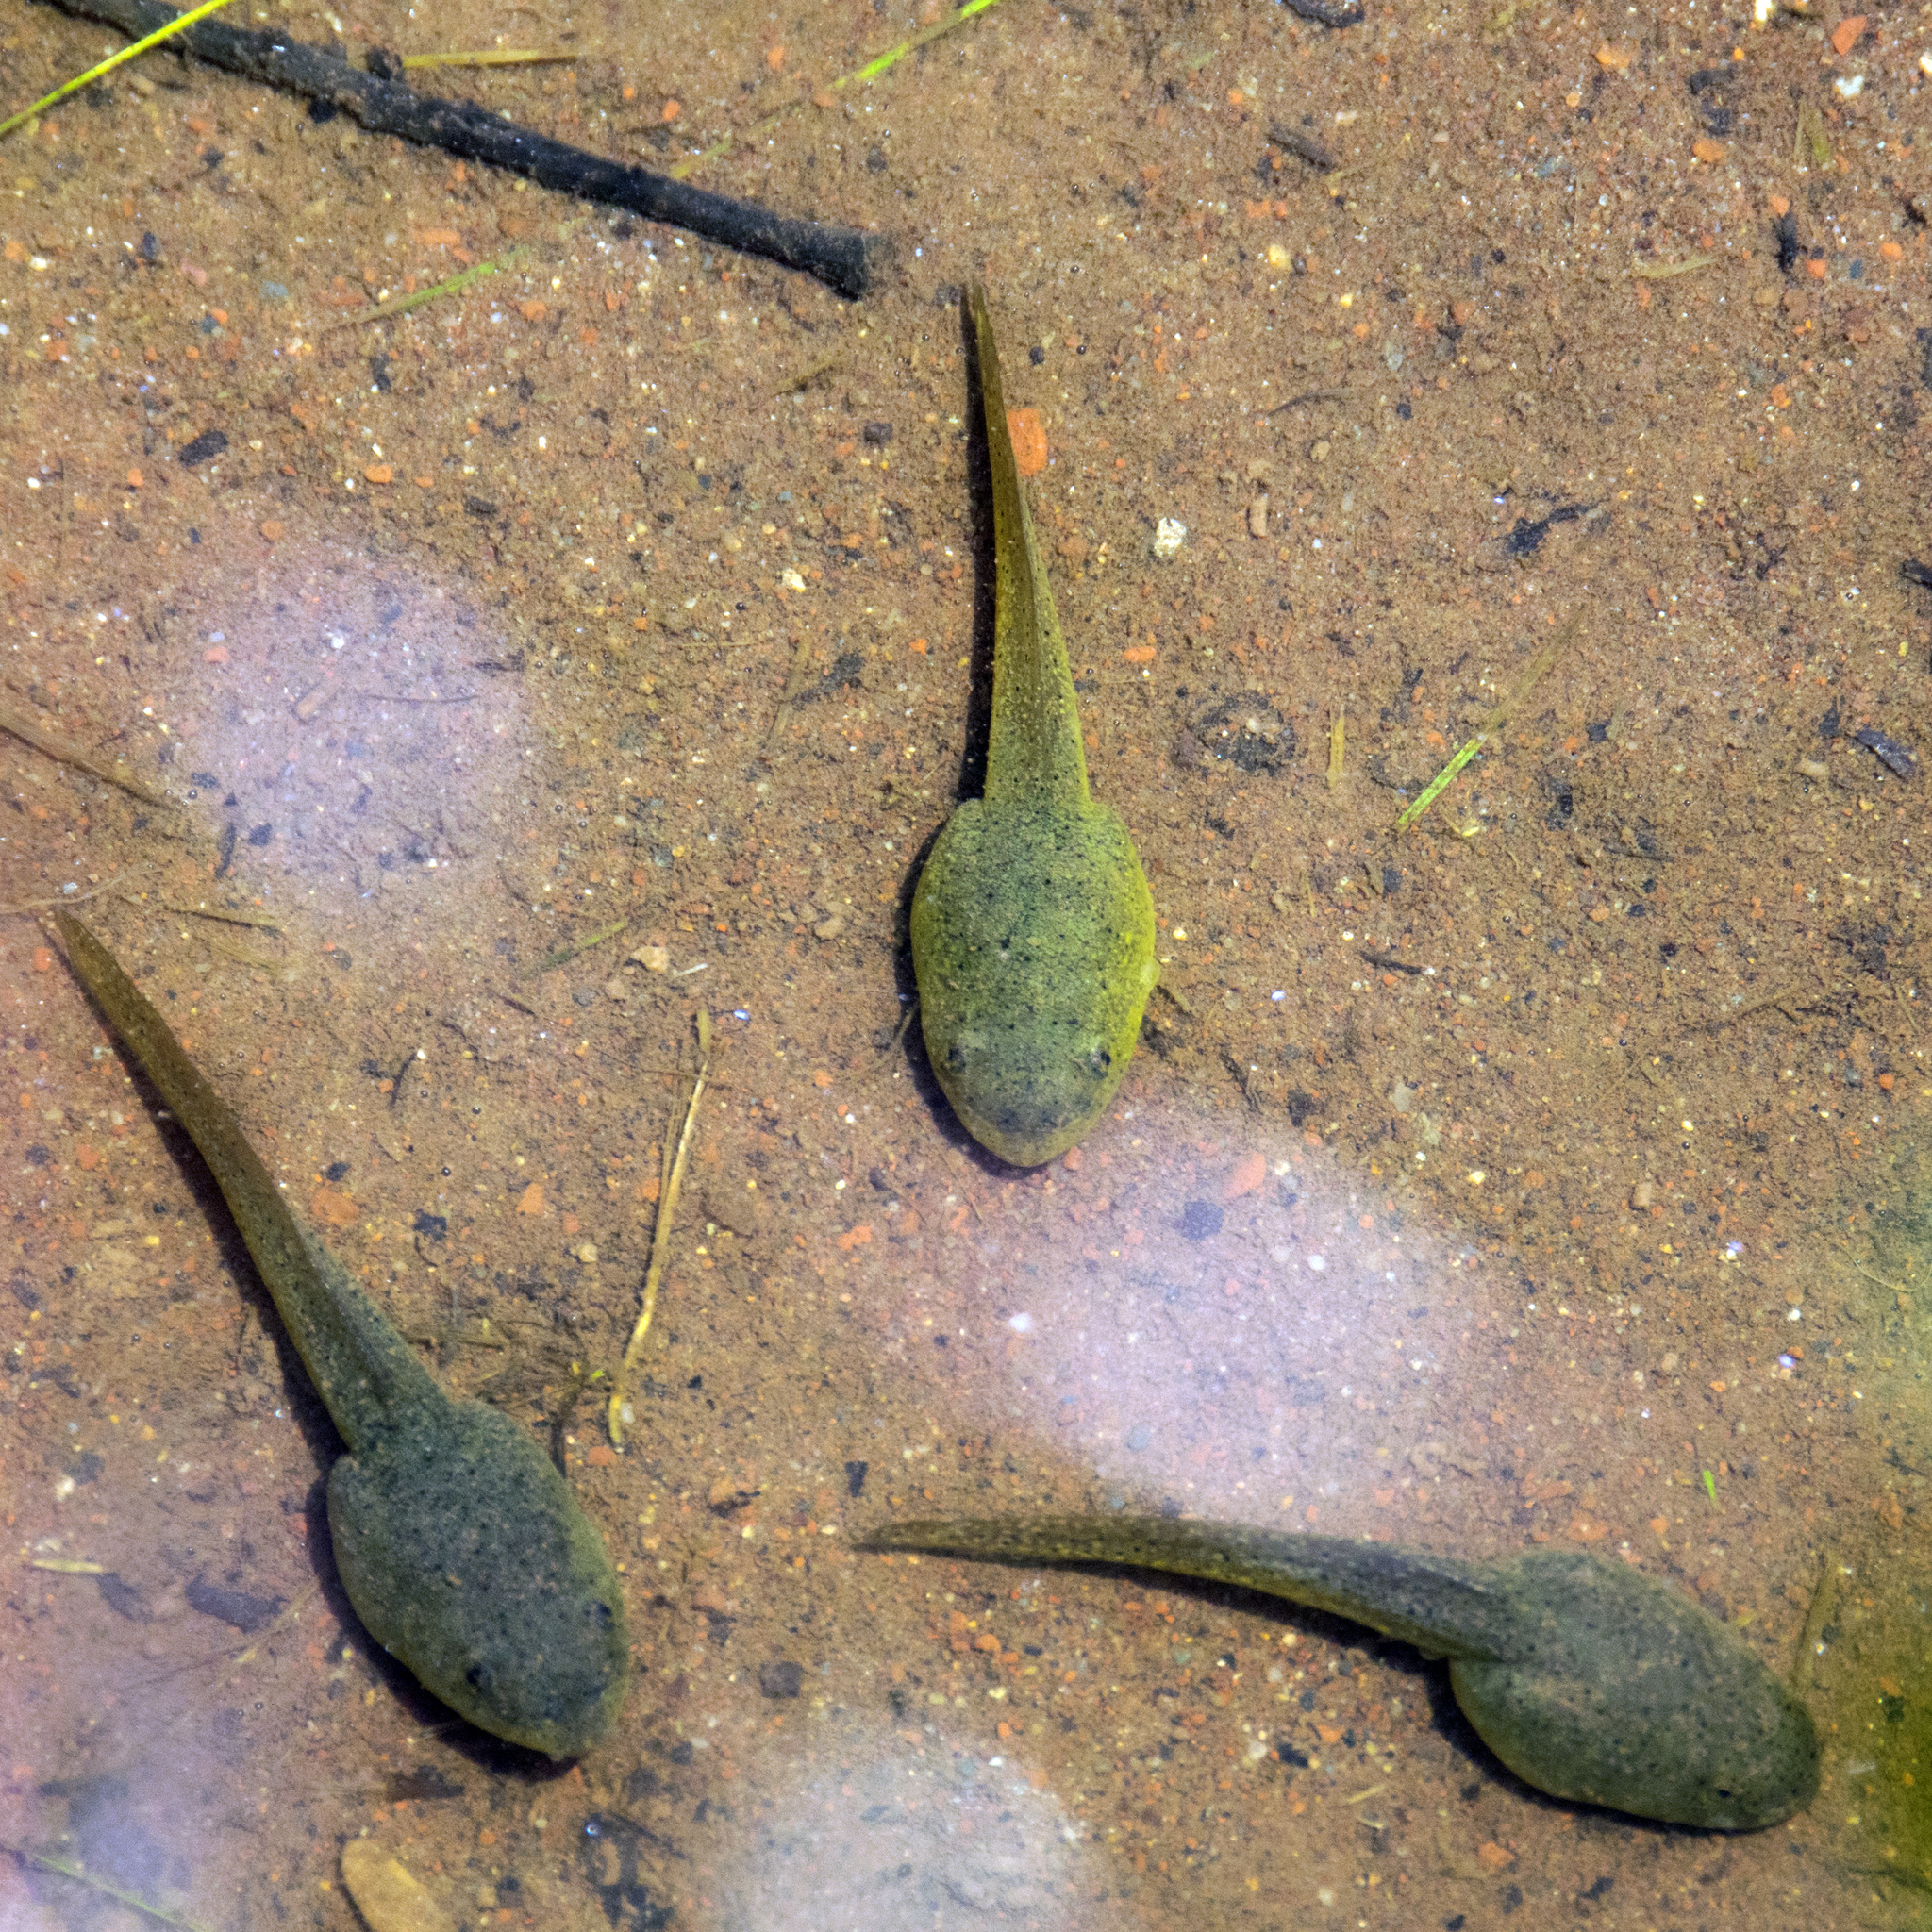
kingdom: Animalia
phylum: Chordata
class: Amphibia
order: Anura
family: Ranidae
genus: Lithobates
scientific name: Lithobates catesbeianus
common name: American bullfrog
